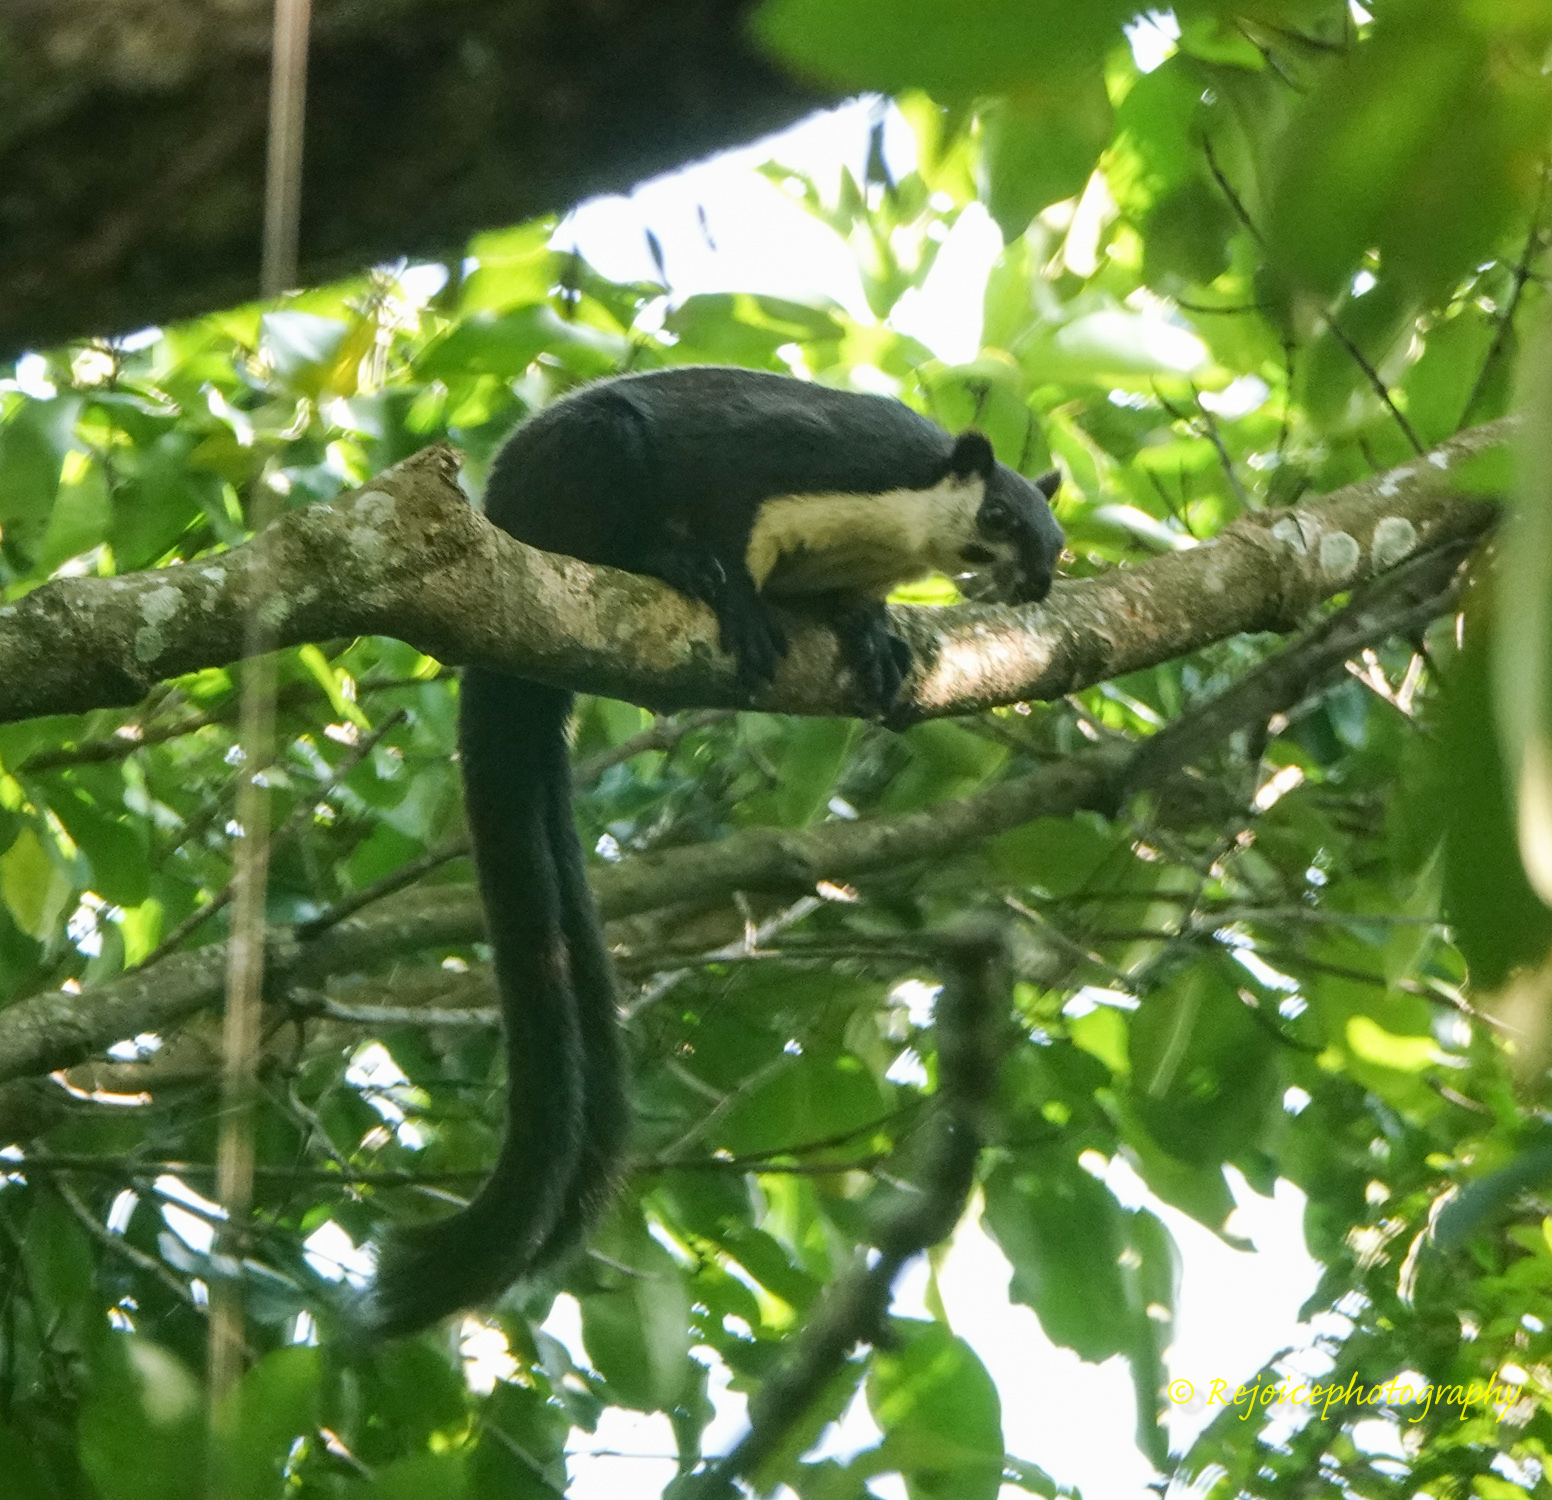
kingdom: Animalia
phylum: Chordata
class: Mammalia
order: Rodentia
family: Sciuridae
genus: Ratufa
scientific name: Ratufa bicolor
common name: Black giant squirrel
